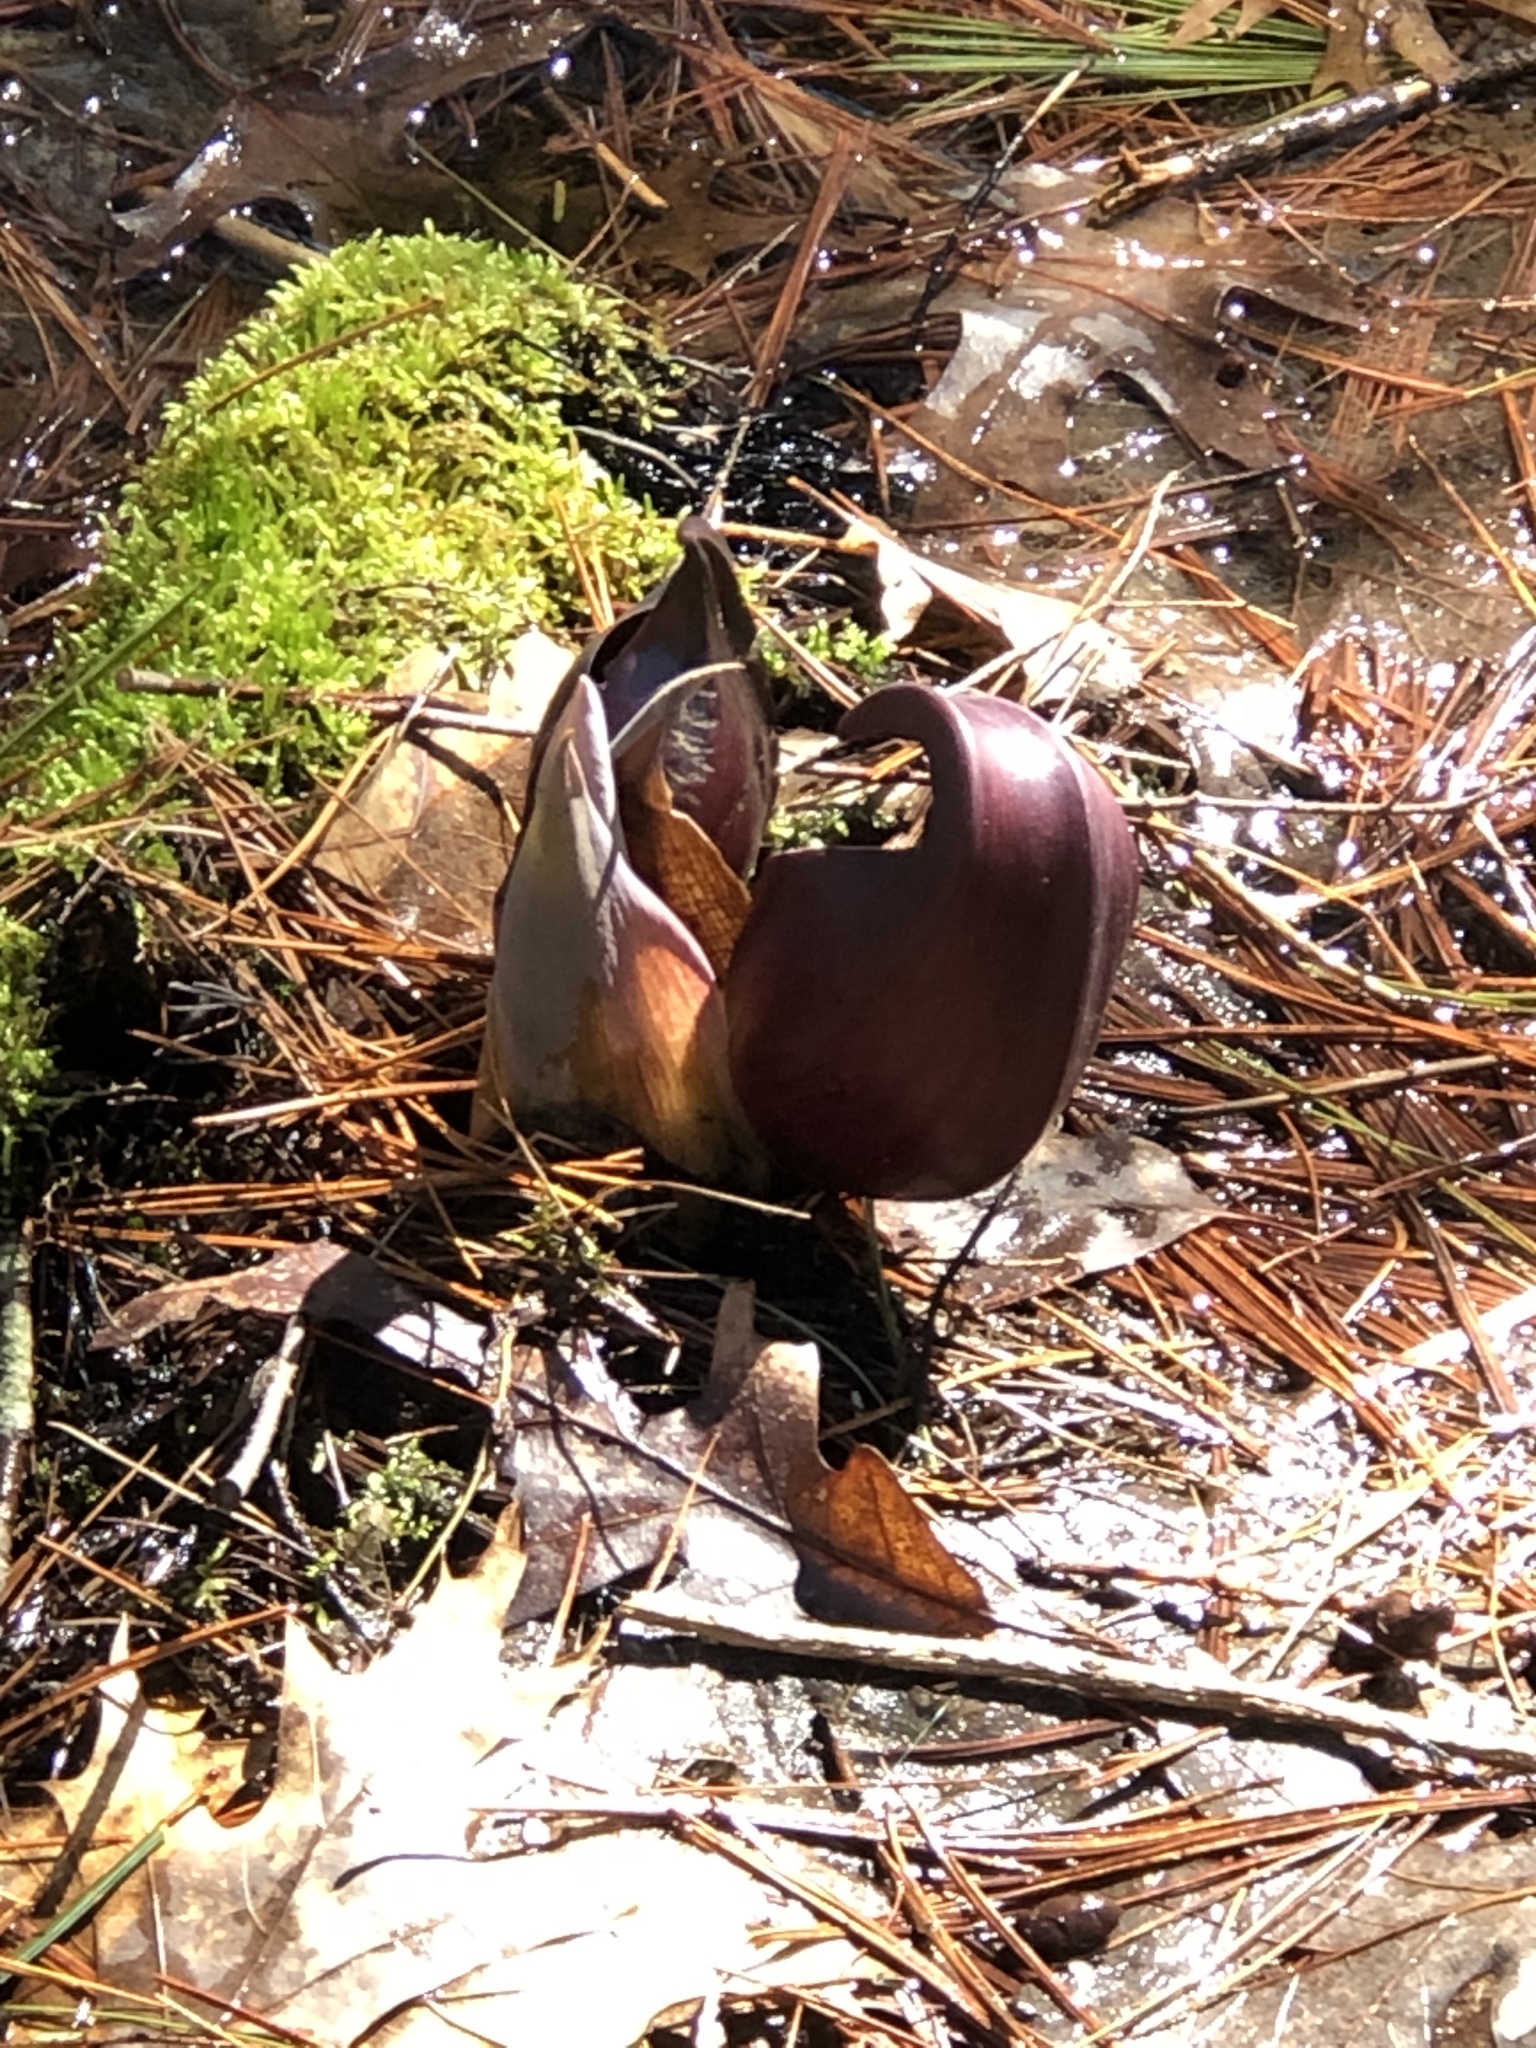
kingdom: Plantae
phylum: Tracheophyta
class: Liliopsida
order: Alismatales
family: Araceae
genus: Symplocarpus
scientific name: Symplocarpus foetidus
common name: Eastern skunk cabbage
